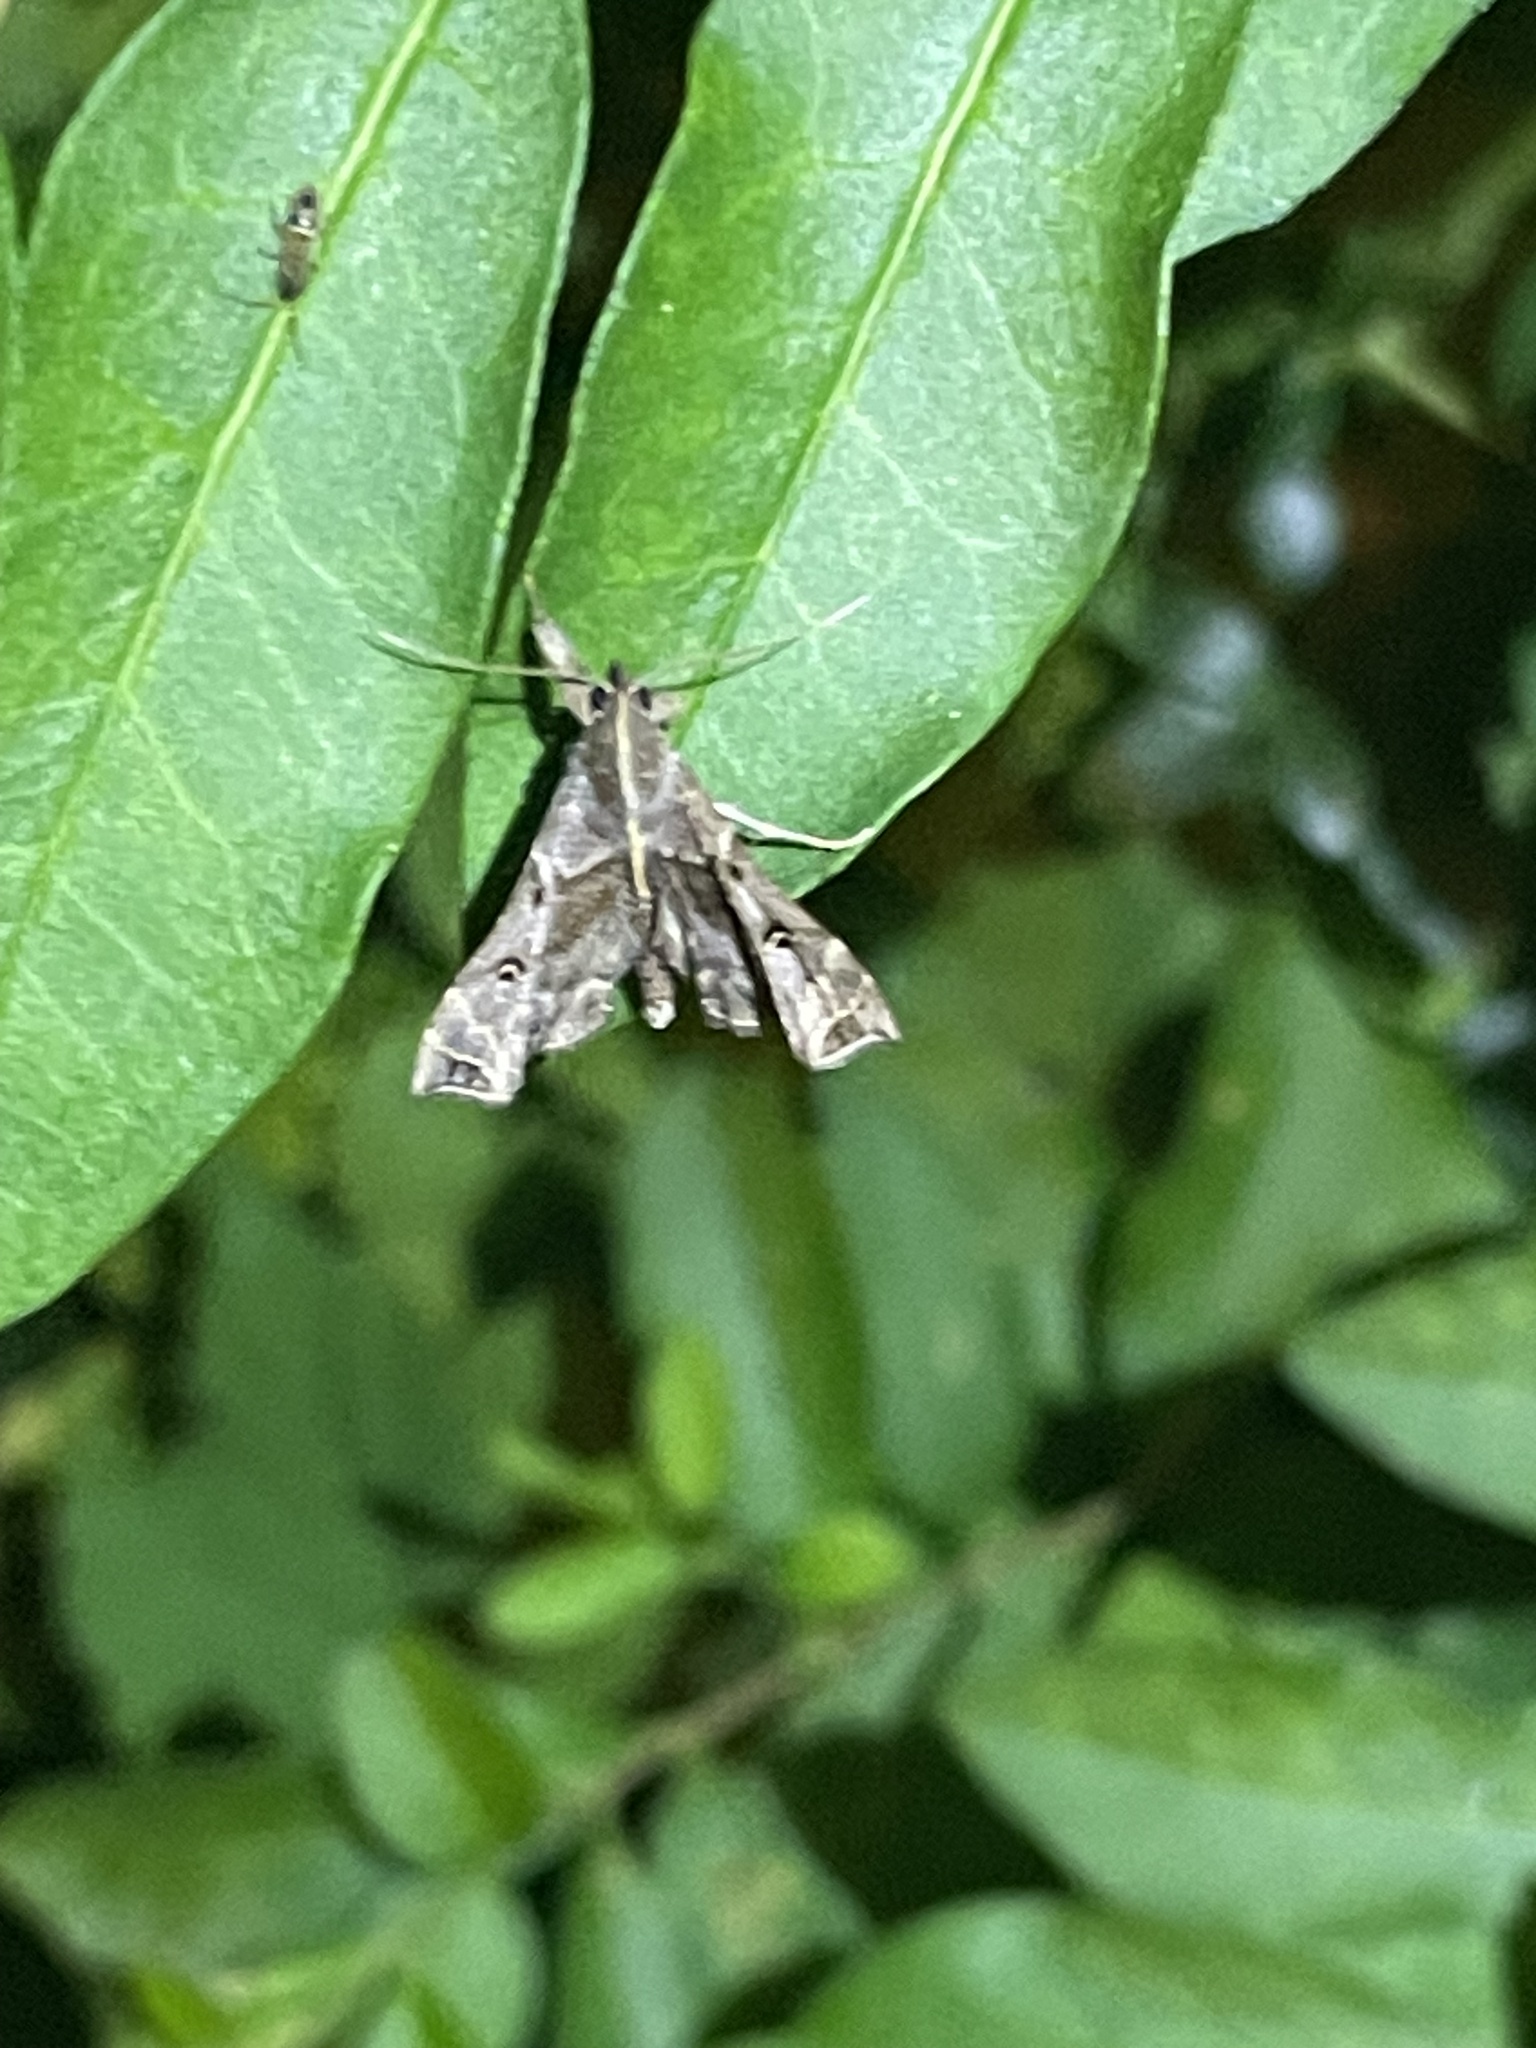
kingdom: Animalia
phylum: Arthropoda
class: Insecta
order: Lepidoptera
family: Erebidae
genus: Palthis
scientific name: Palthis asopialis
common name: Faint-spotted palthis moth
